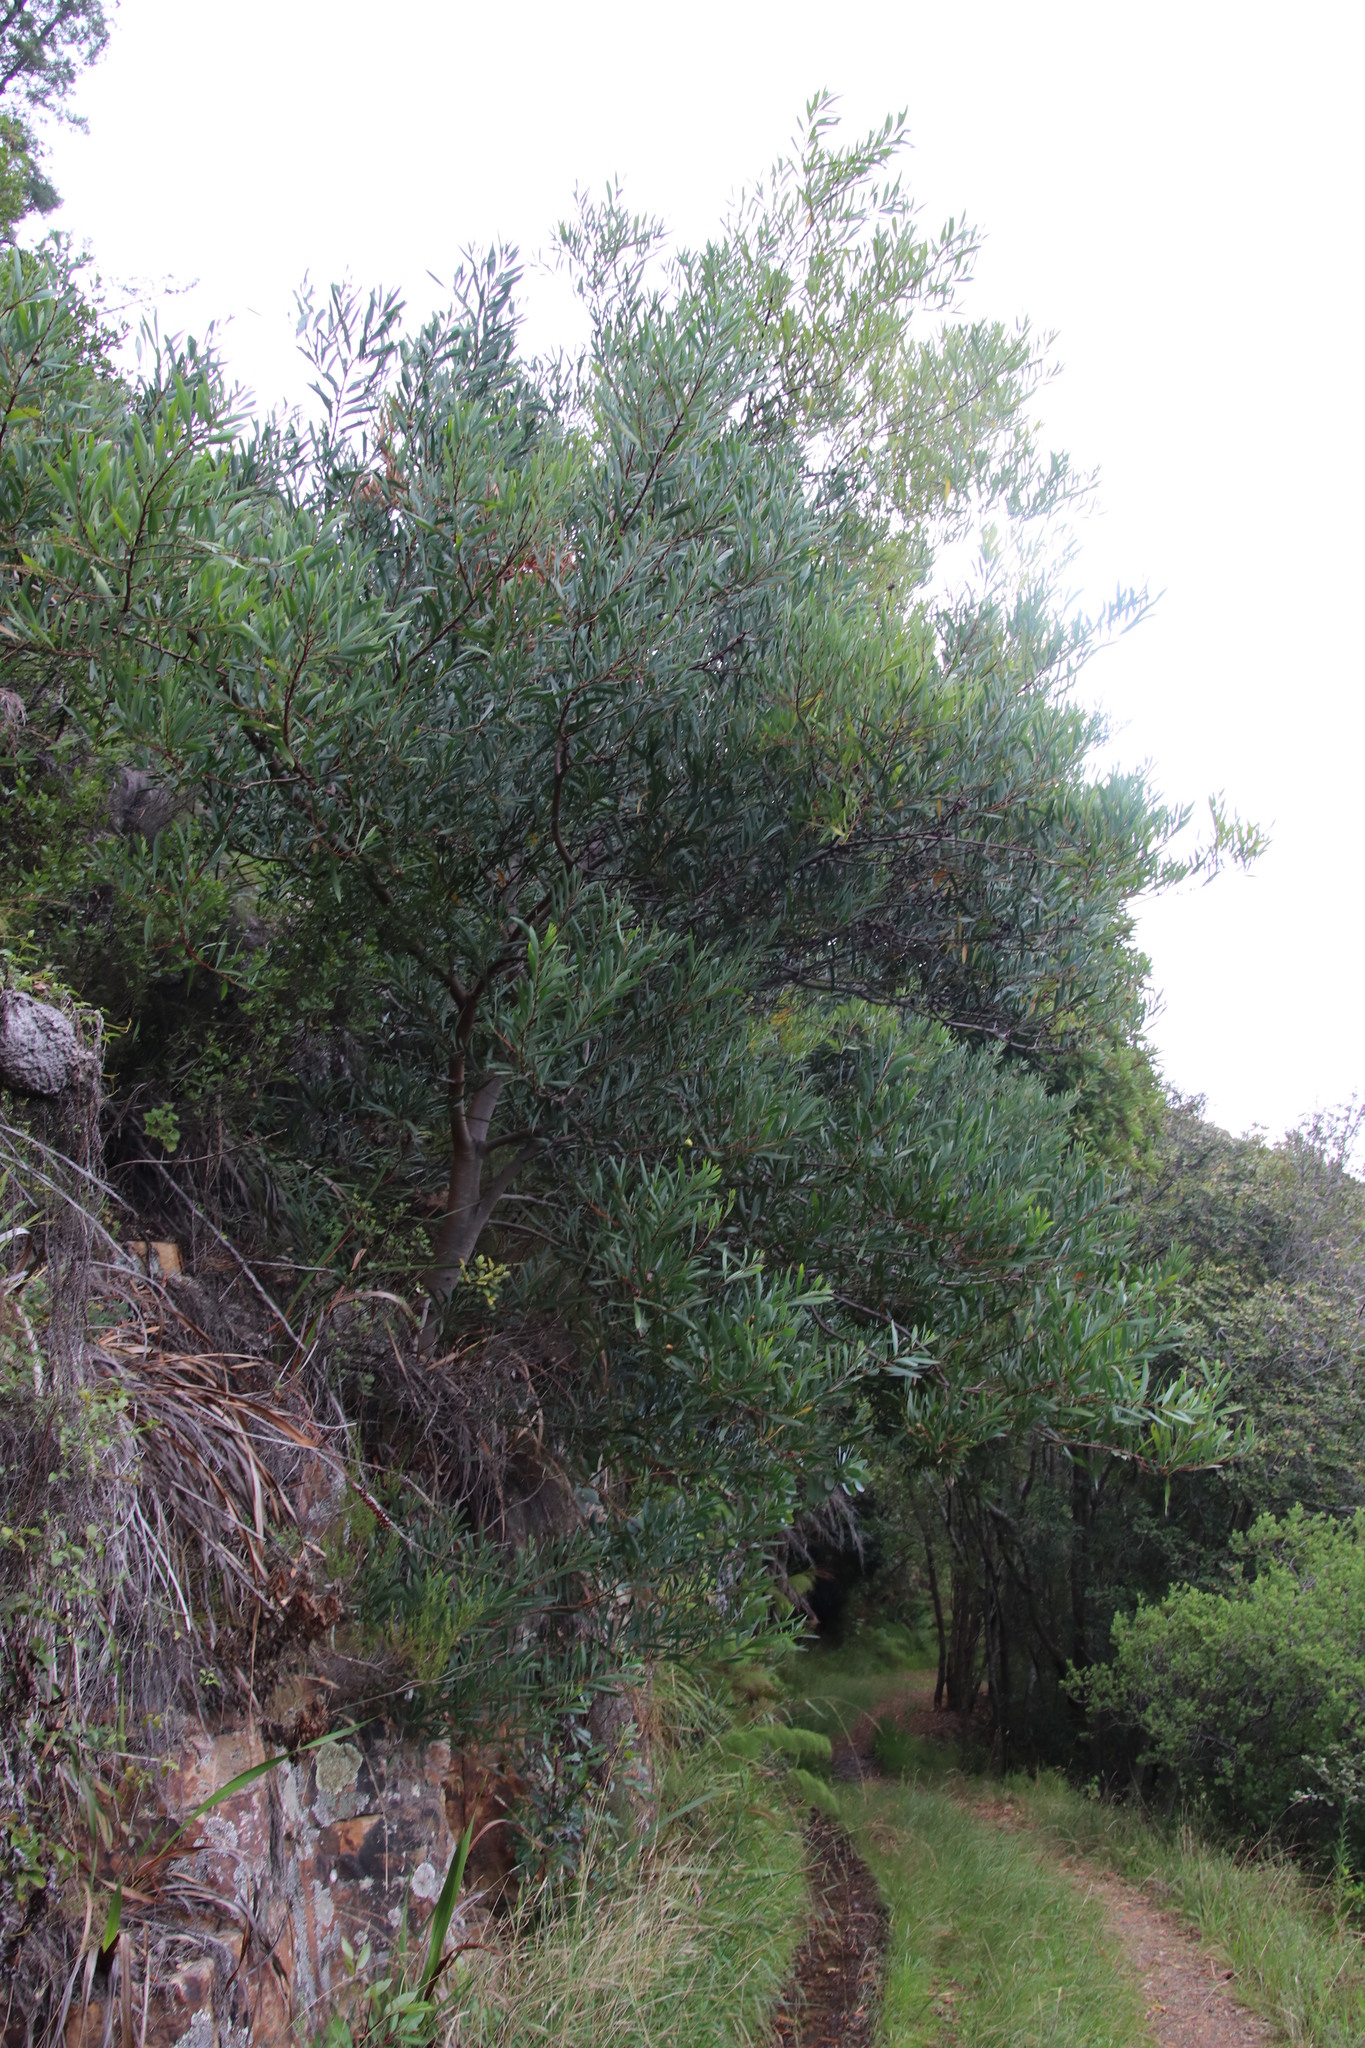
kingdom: Plantae
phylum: Tracheophyta
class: Magnoliopsida
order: Fabales
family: Fabaceae
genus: Acacia
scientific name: Acacia longifolia
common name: Sydney golden wattle
